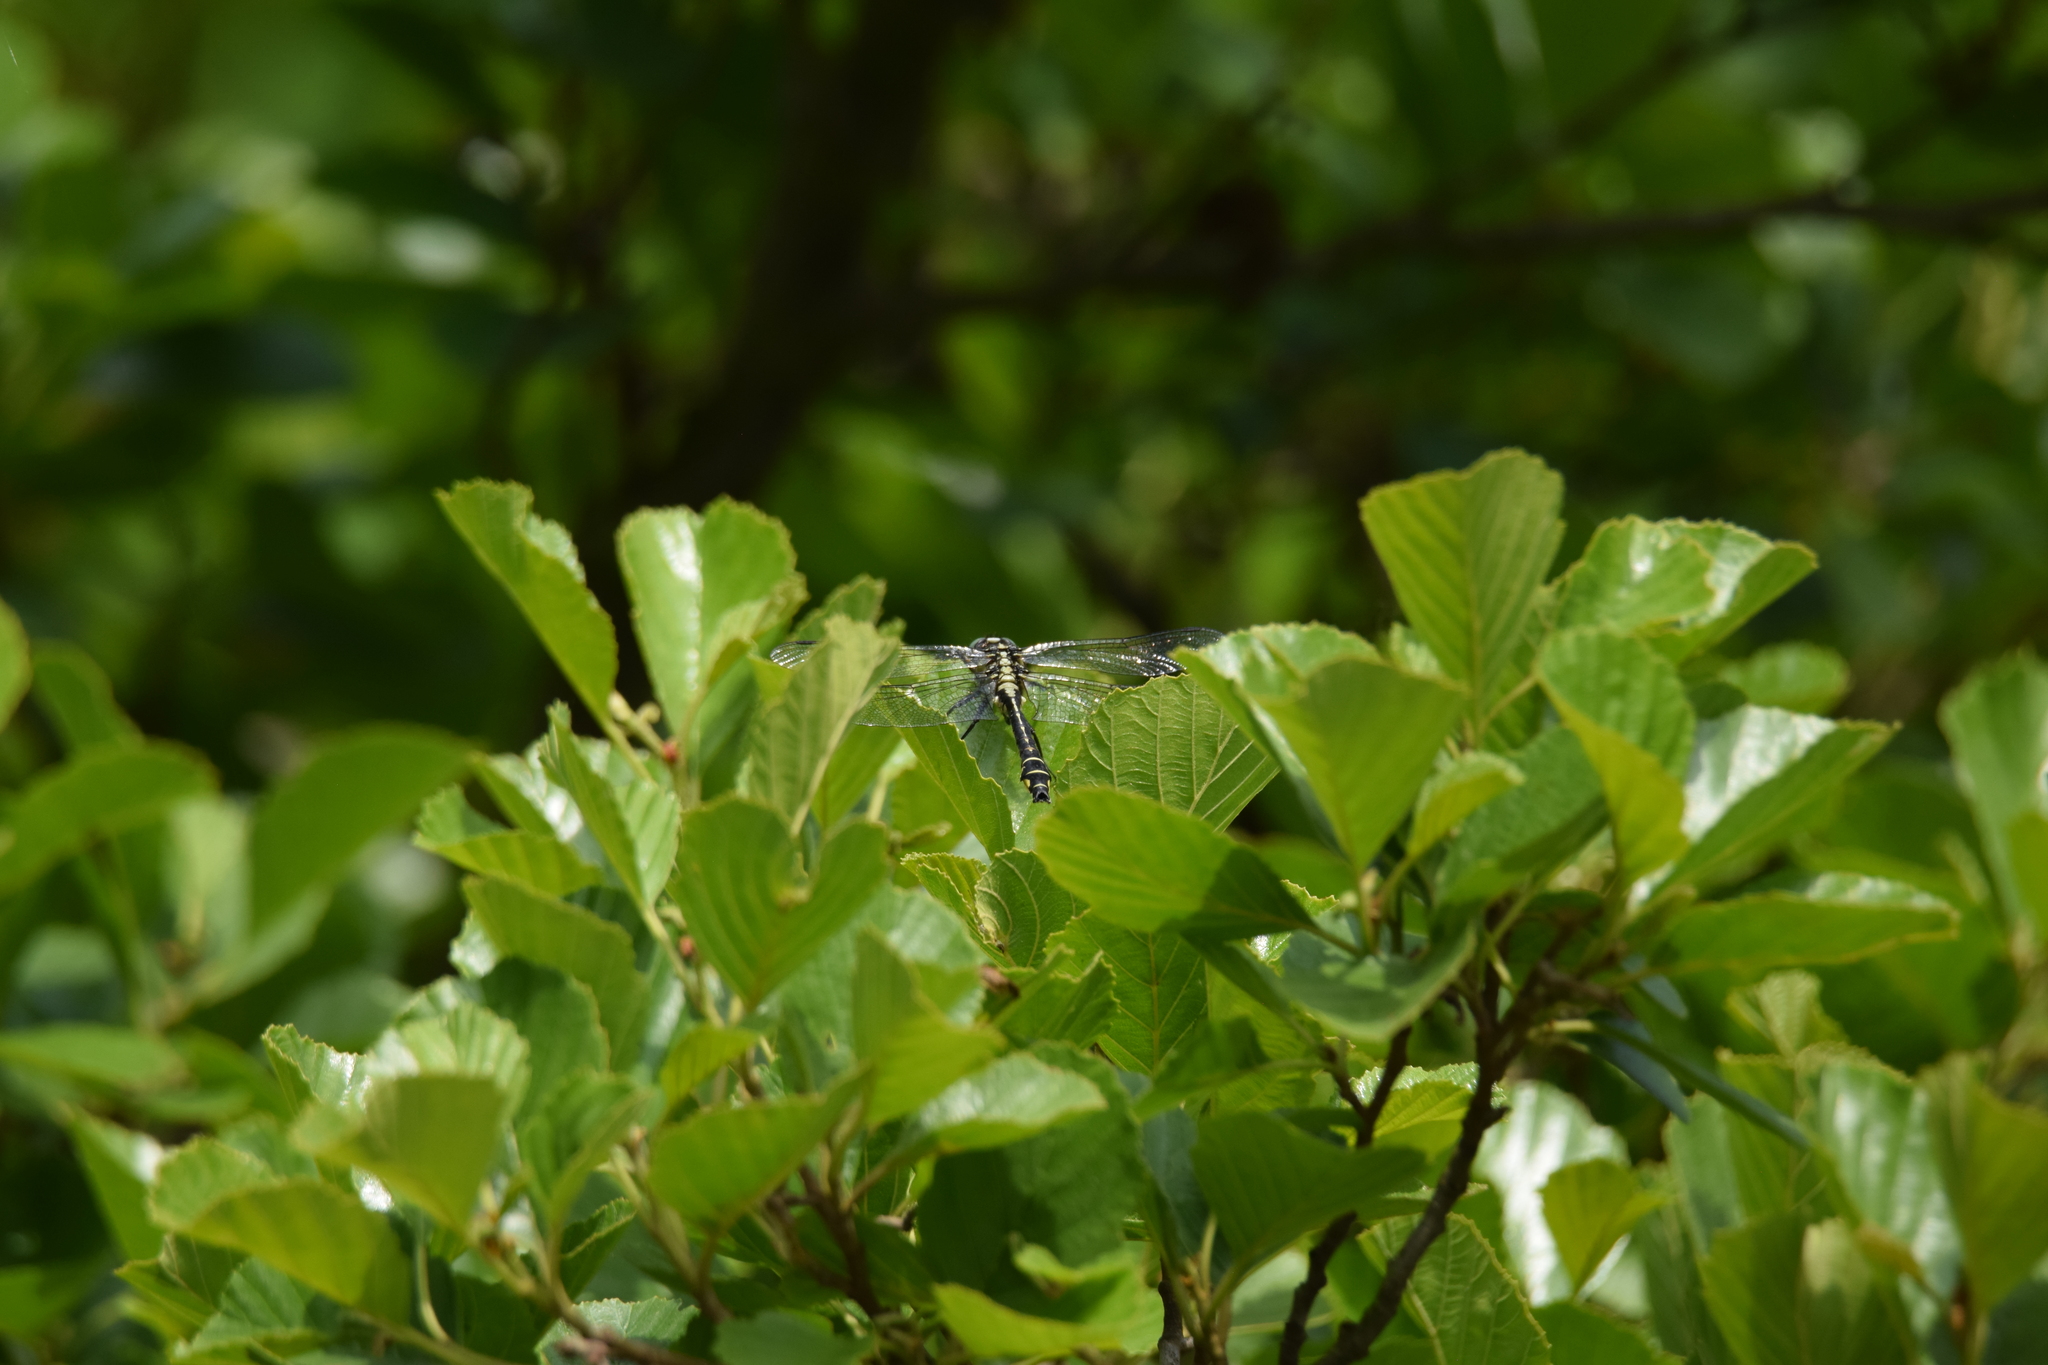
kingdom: Animalia
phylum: Arthropoda
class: Insecta
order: Odonata
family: Gomphidae
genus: Gomphus
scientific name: Gomphus vulgatissimus
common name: Club-tailed dragonfly
